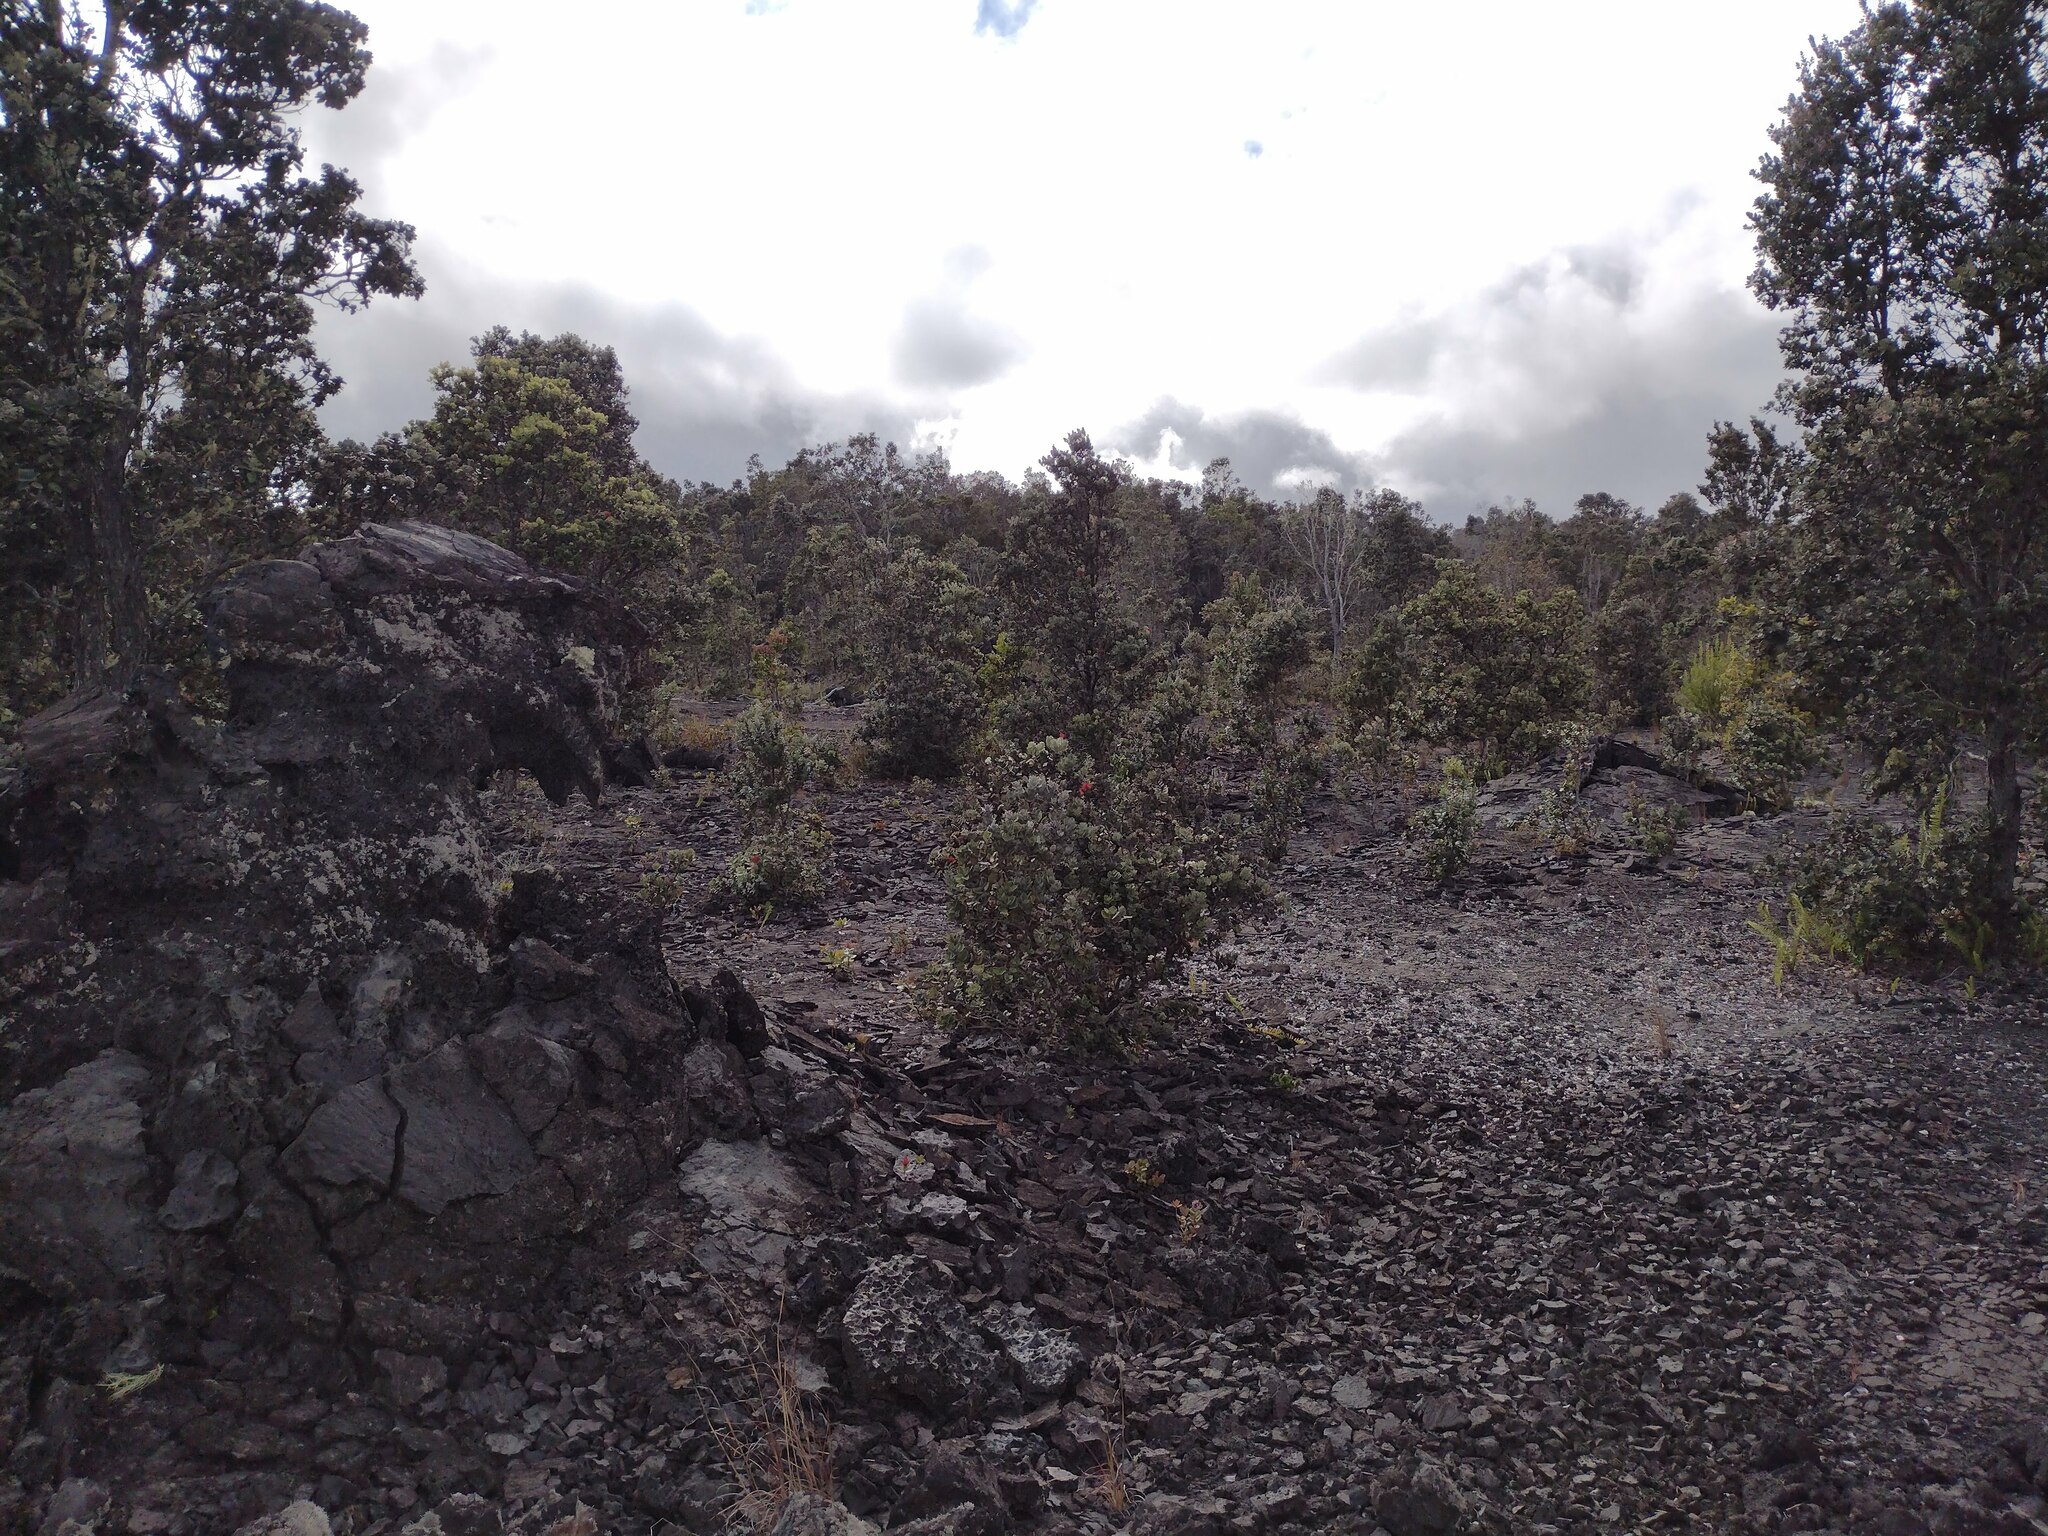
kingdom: Plantae
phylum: Tracheophyta
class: Magnoliopsida
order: Myrtales
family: Myrtaceae
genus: Metrosideros
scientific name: Metrosideros polymorpha
